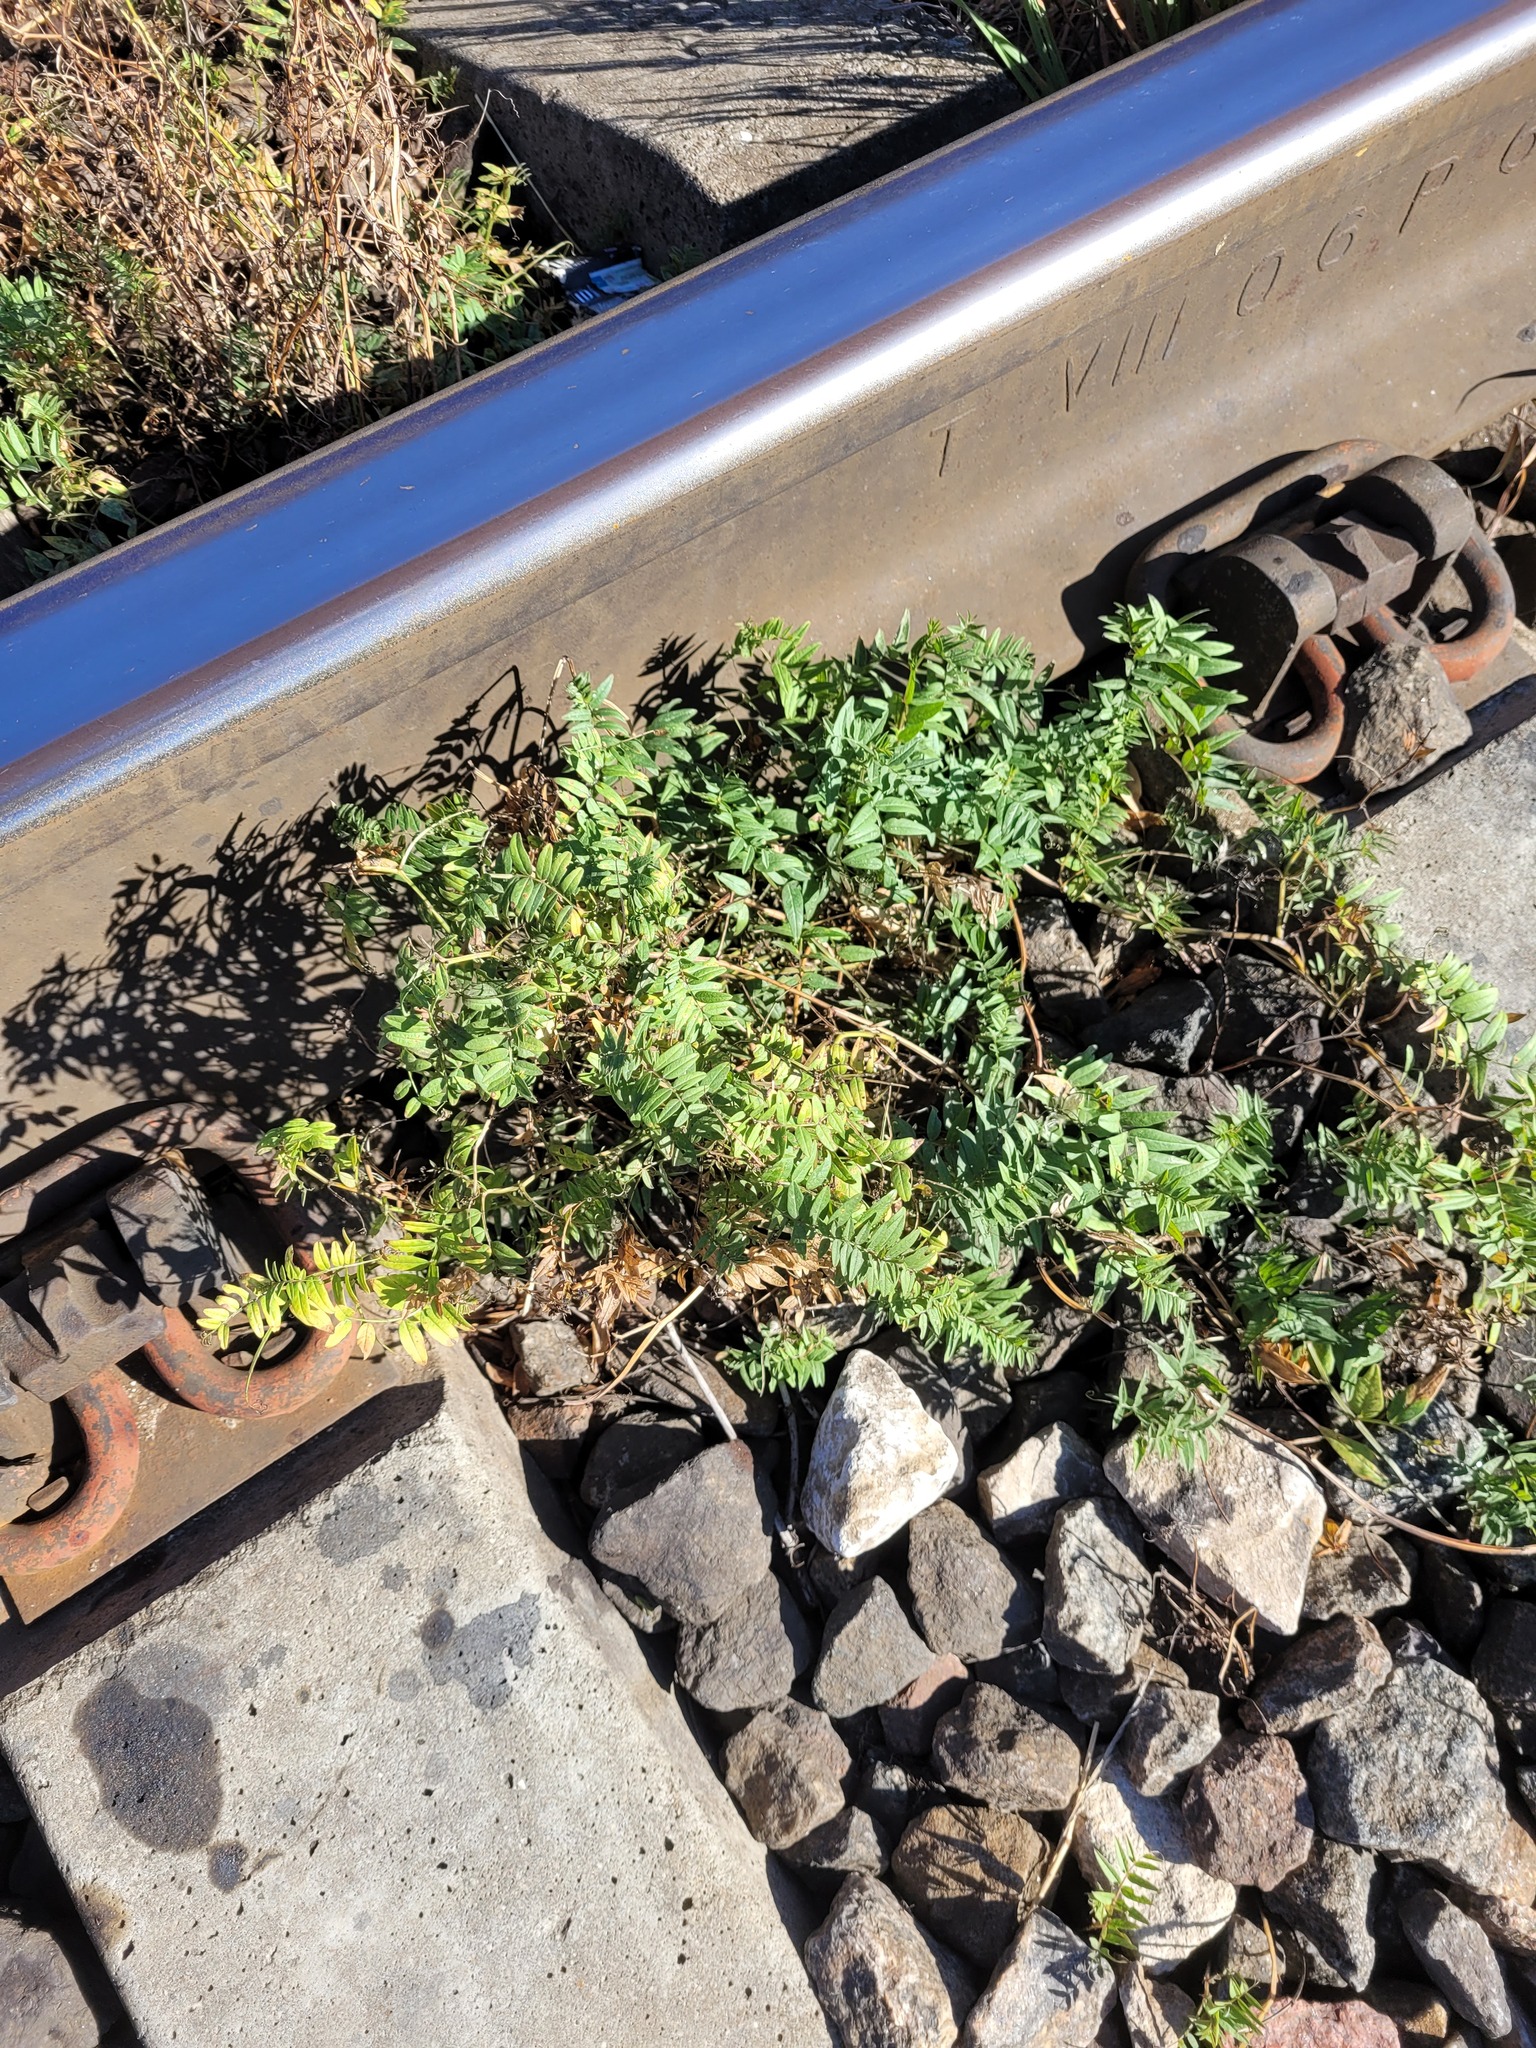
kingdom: Plantae
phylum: Tracheophyta
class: Magnoliopsida
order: Fabales
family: Fabaceae
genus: Vicia
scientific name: Vicia sepium
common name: Bush vetch
